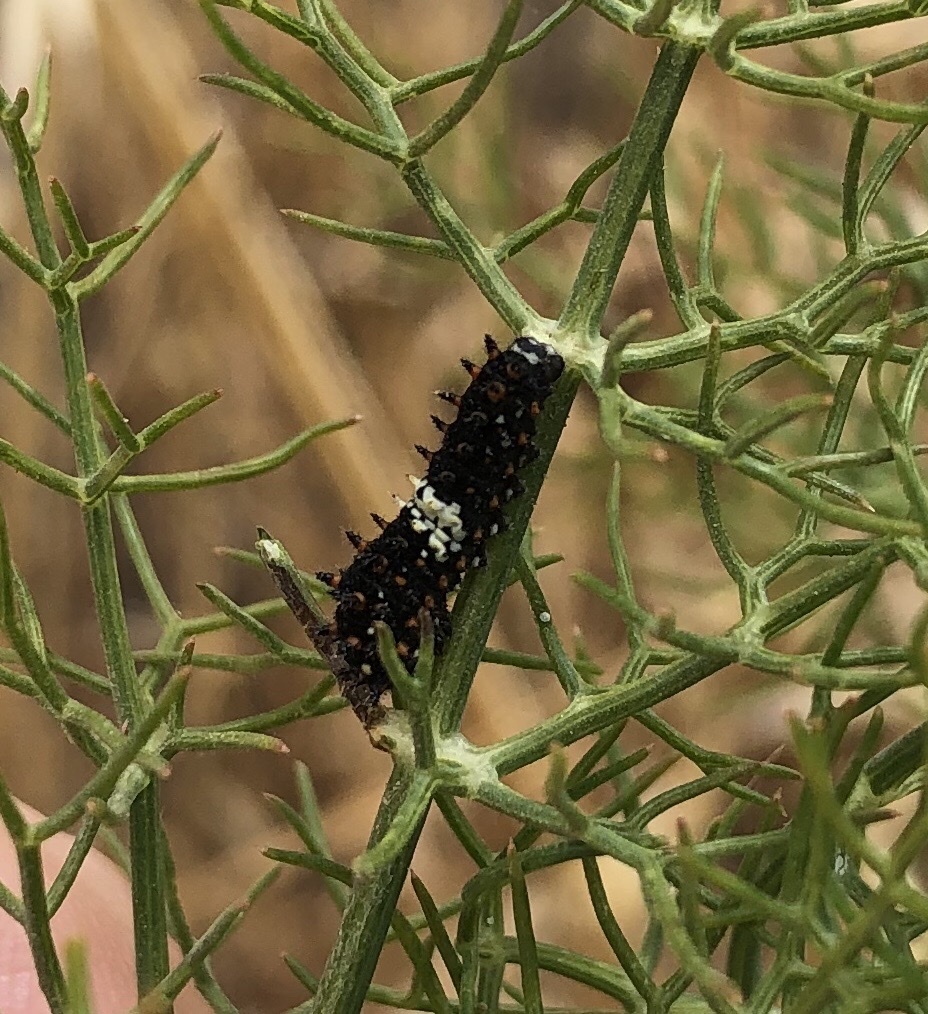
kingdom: Animalia
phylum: Arthropoda
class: Insecta
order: Lepidoptera
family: Papilionidae
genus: Papilio
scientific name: Papilio zelicaon
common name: Anise swallowtail
